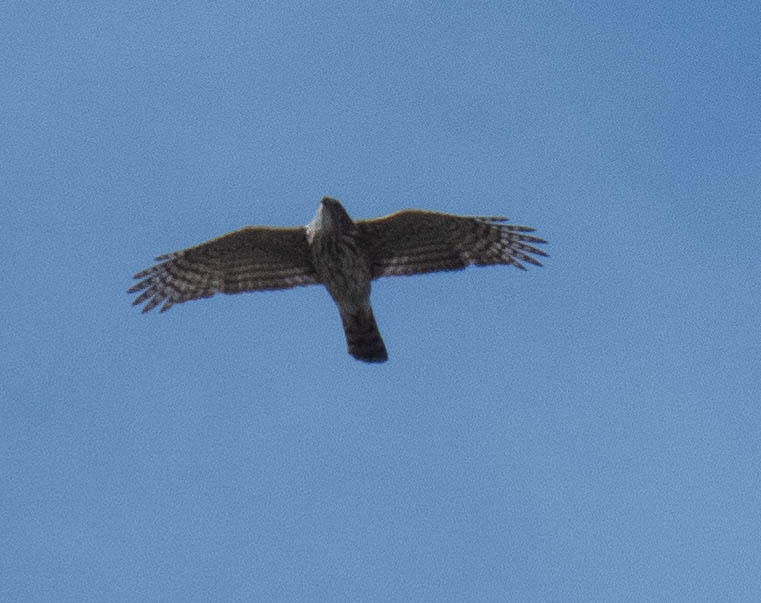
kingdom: Animalia
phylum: Chordata
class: Aves
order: Accipitriformes
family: Accipitridae
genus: Accipiter
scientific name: Accipiter cooperii
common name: Cooper's hawk
